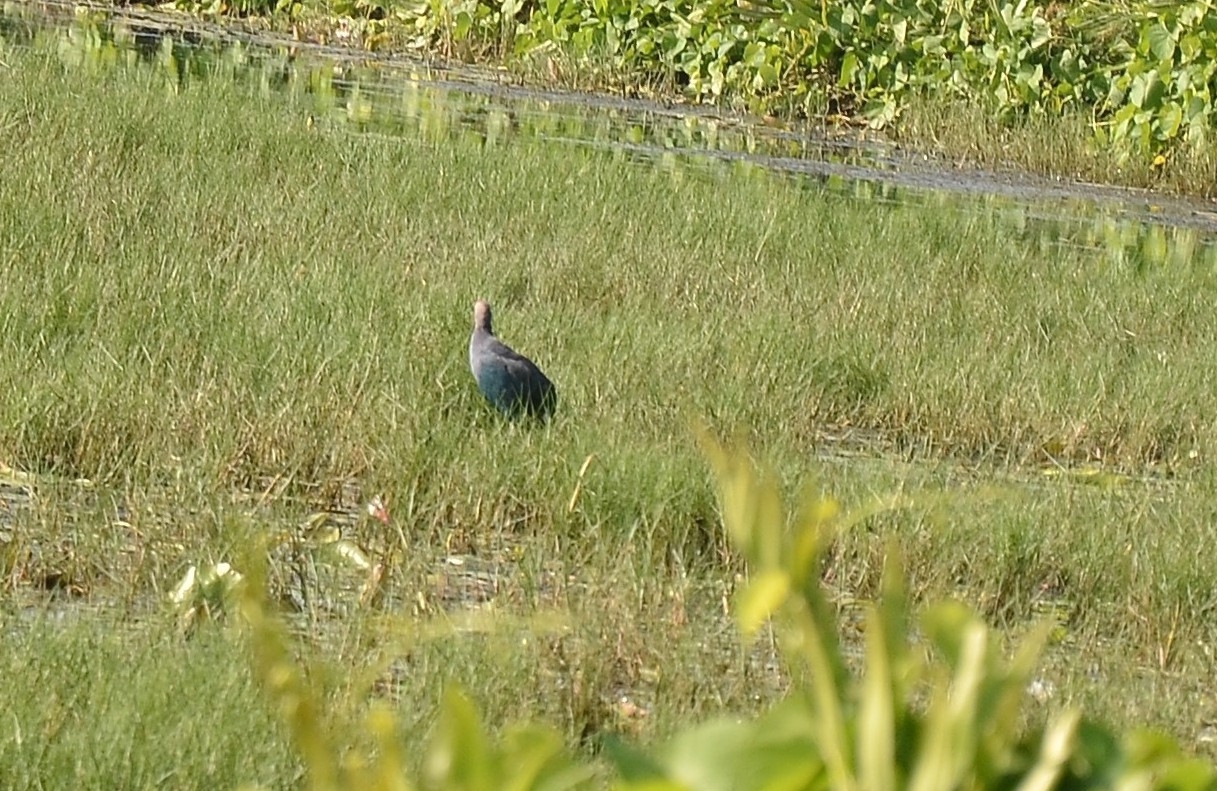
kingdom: Animalia
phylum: Chordata
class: Aves
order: Gruiformes
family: Rallidae
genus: Porphyrio
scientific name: Porphyrio porphyrio
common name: Purple swamphen
